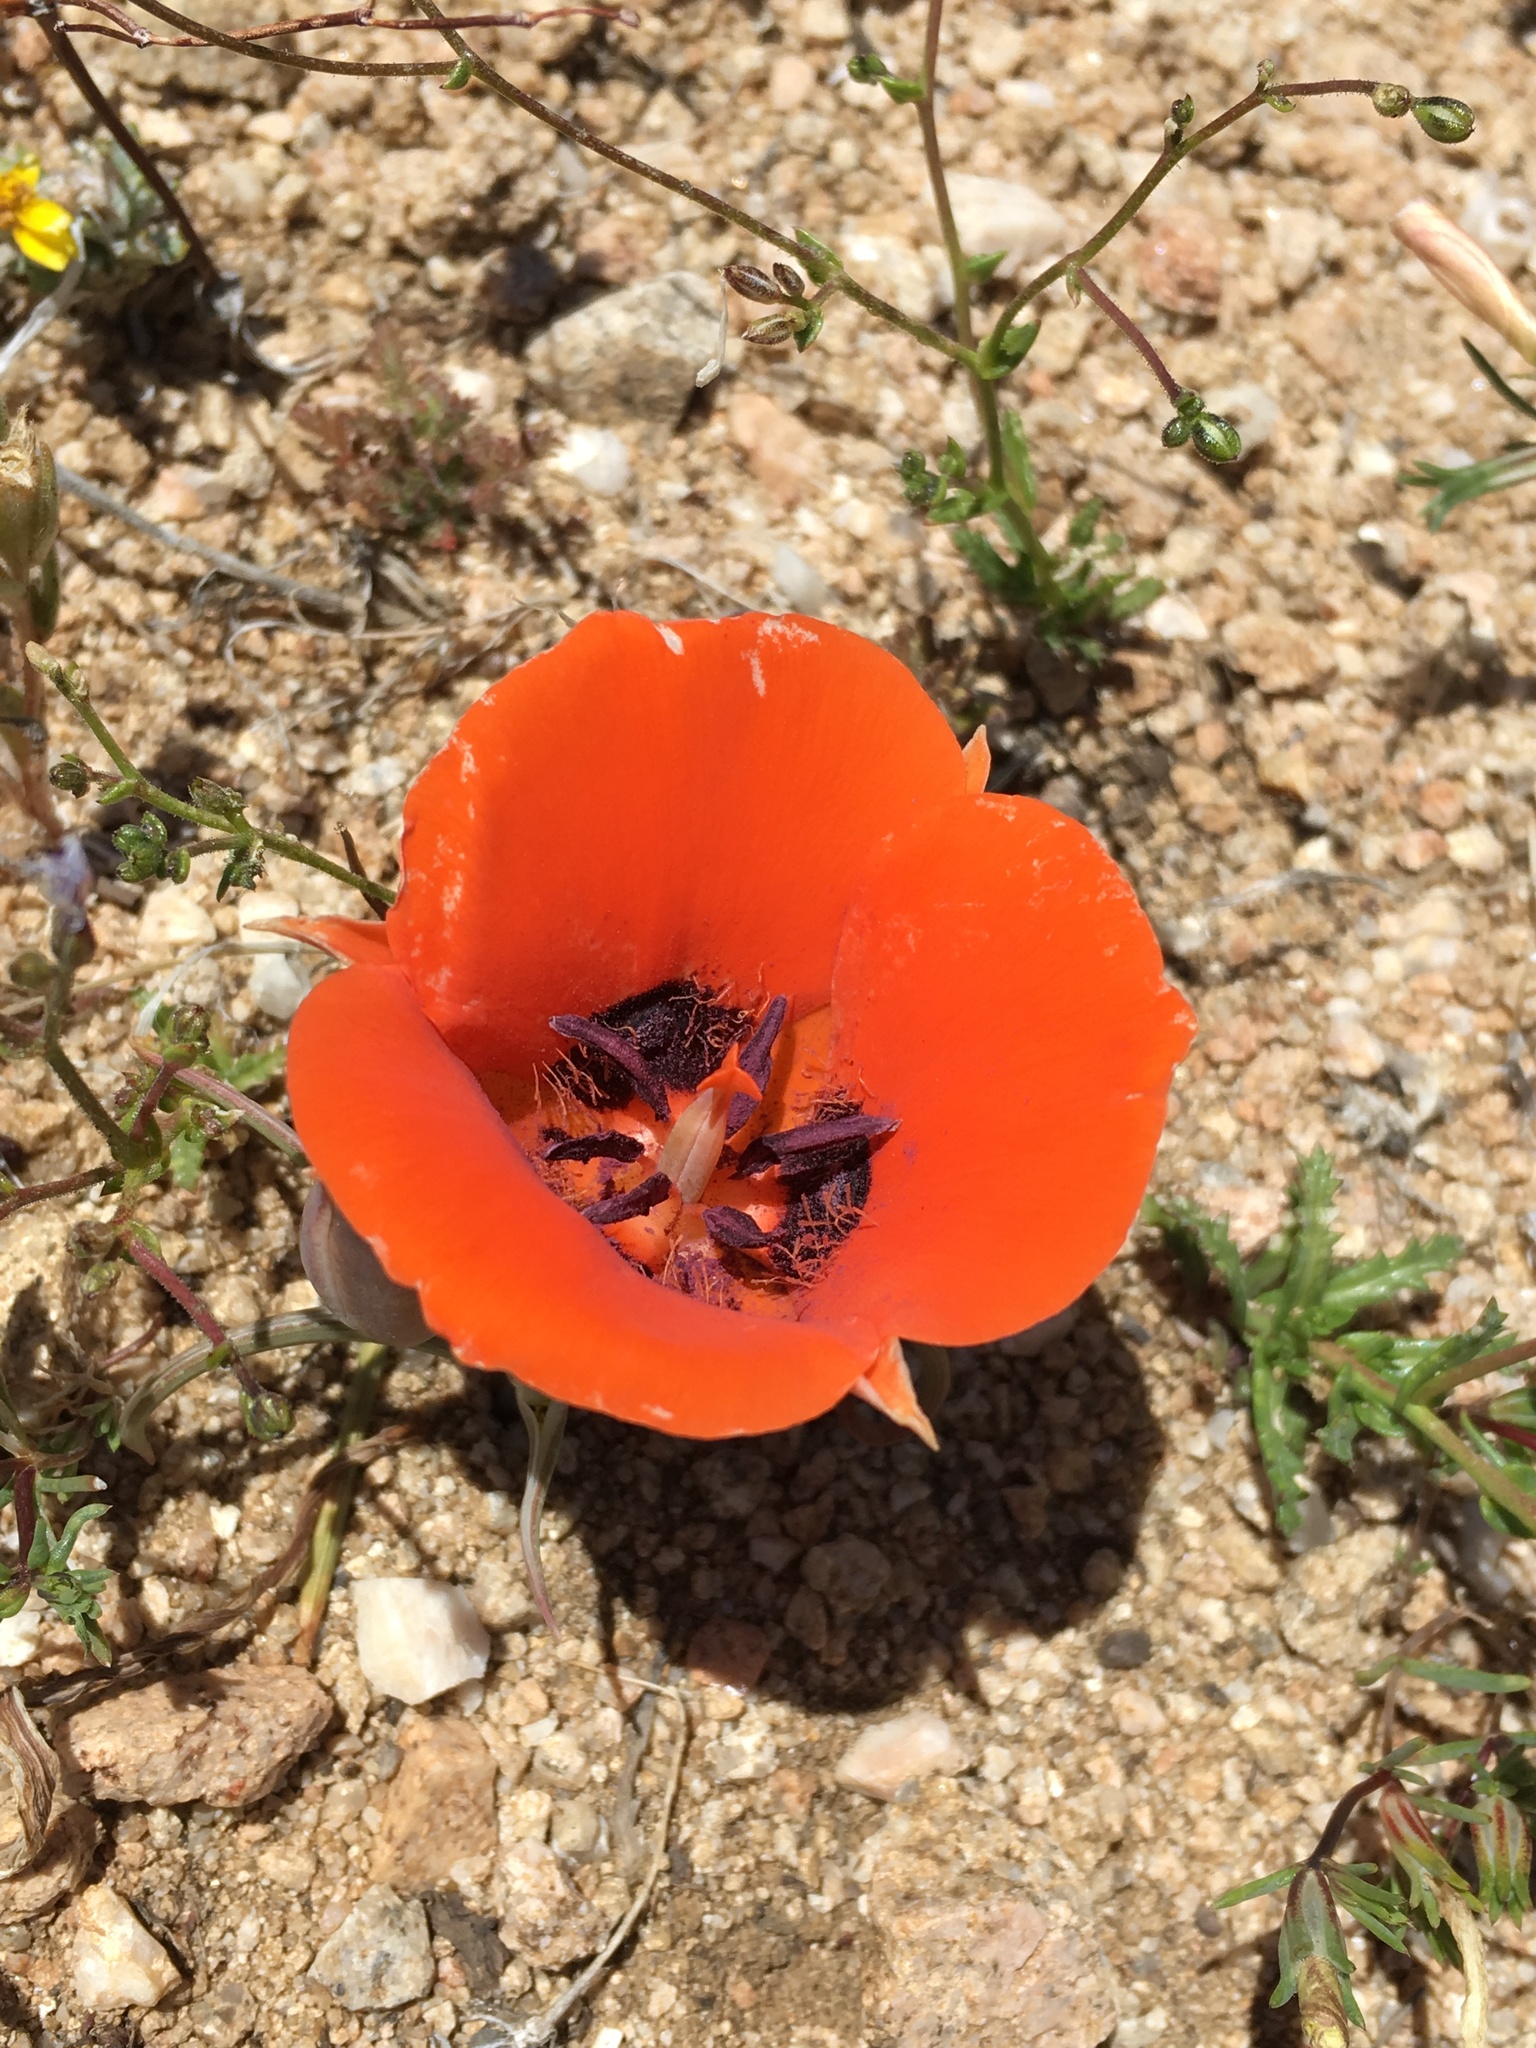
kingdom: Plantae
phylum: Tracheophyta
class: Liliopsida
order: Liliales
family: Liliaceae
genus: Calochortus
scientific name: Calochortus kennedyi
